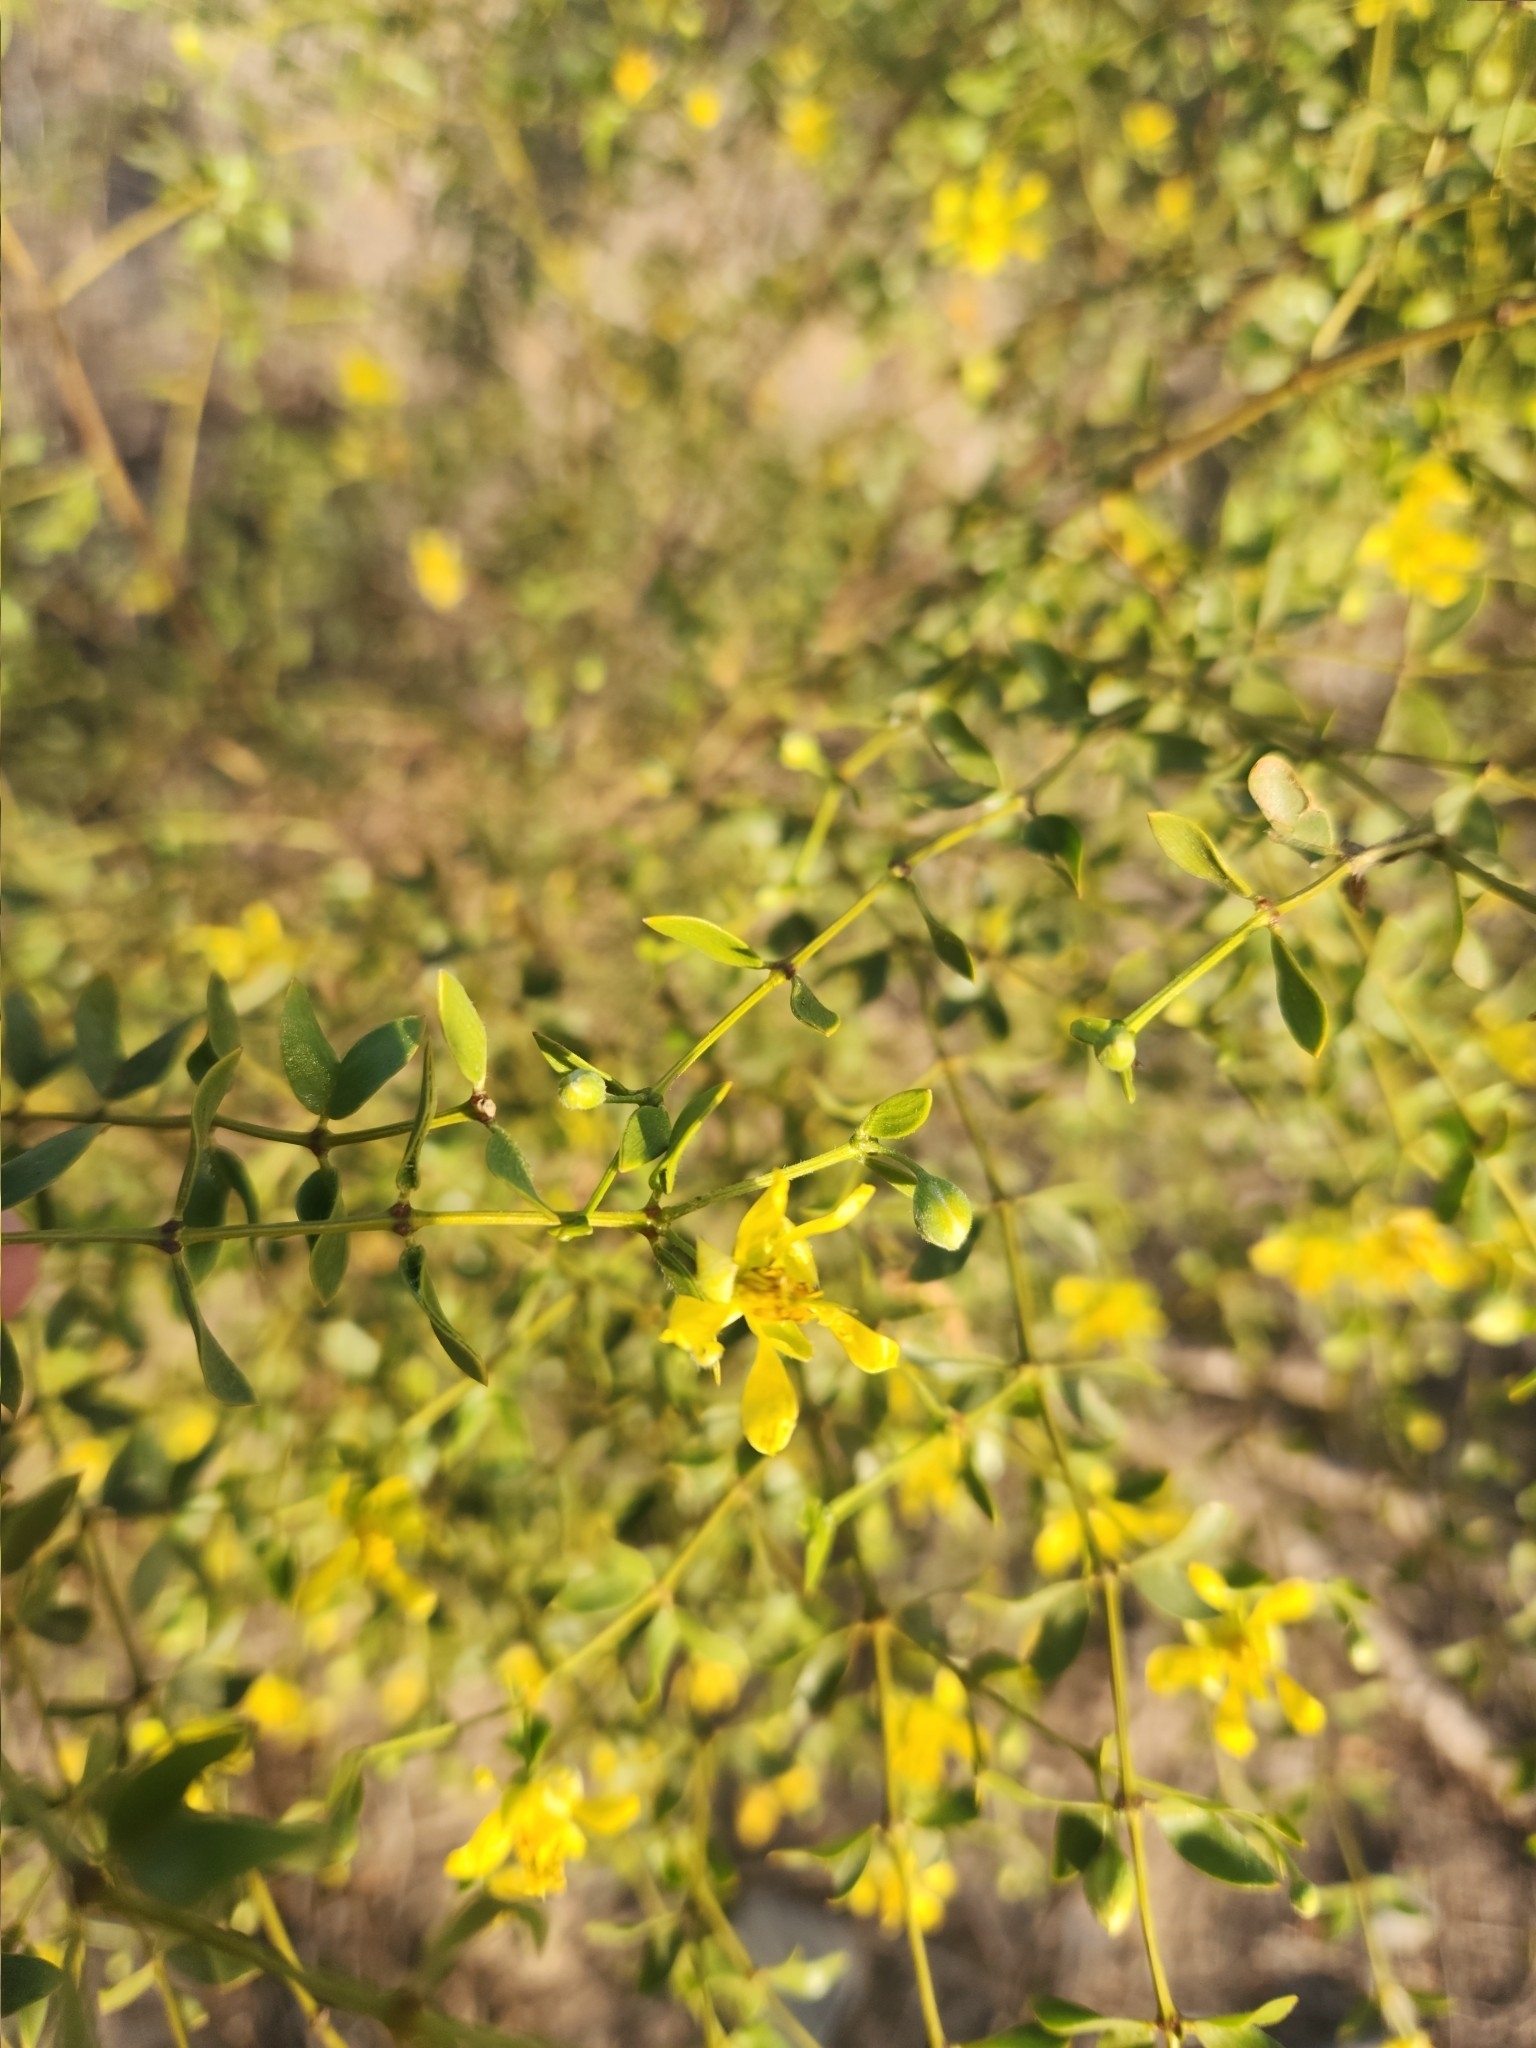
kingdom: Plantae
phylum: Tracheophyta
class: Magnoliopsida
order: Zygophyllales
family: Zygophyllaceae
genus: Larrea
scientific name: Larrea divaricata
